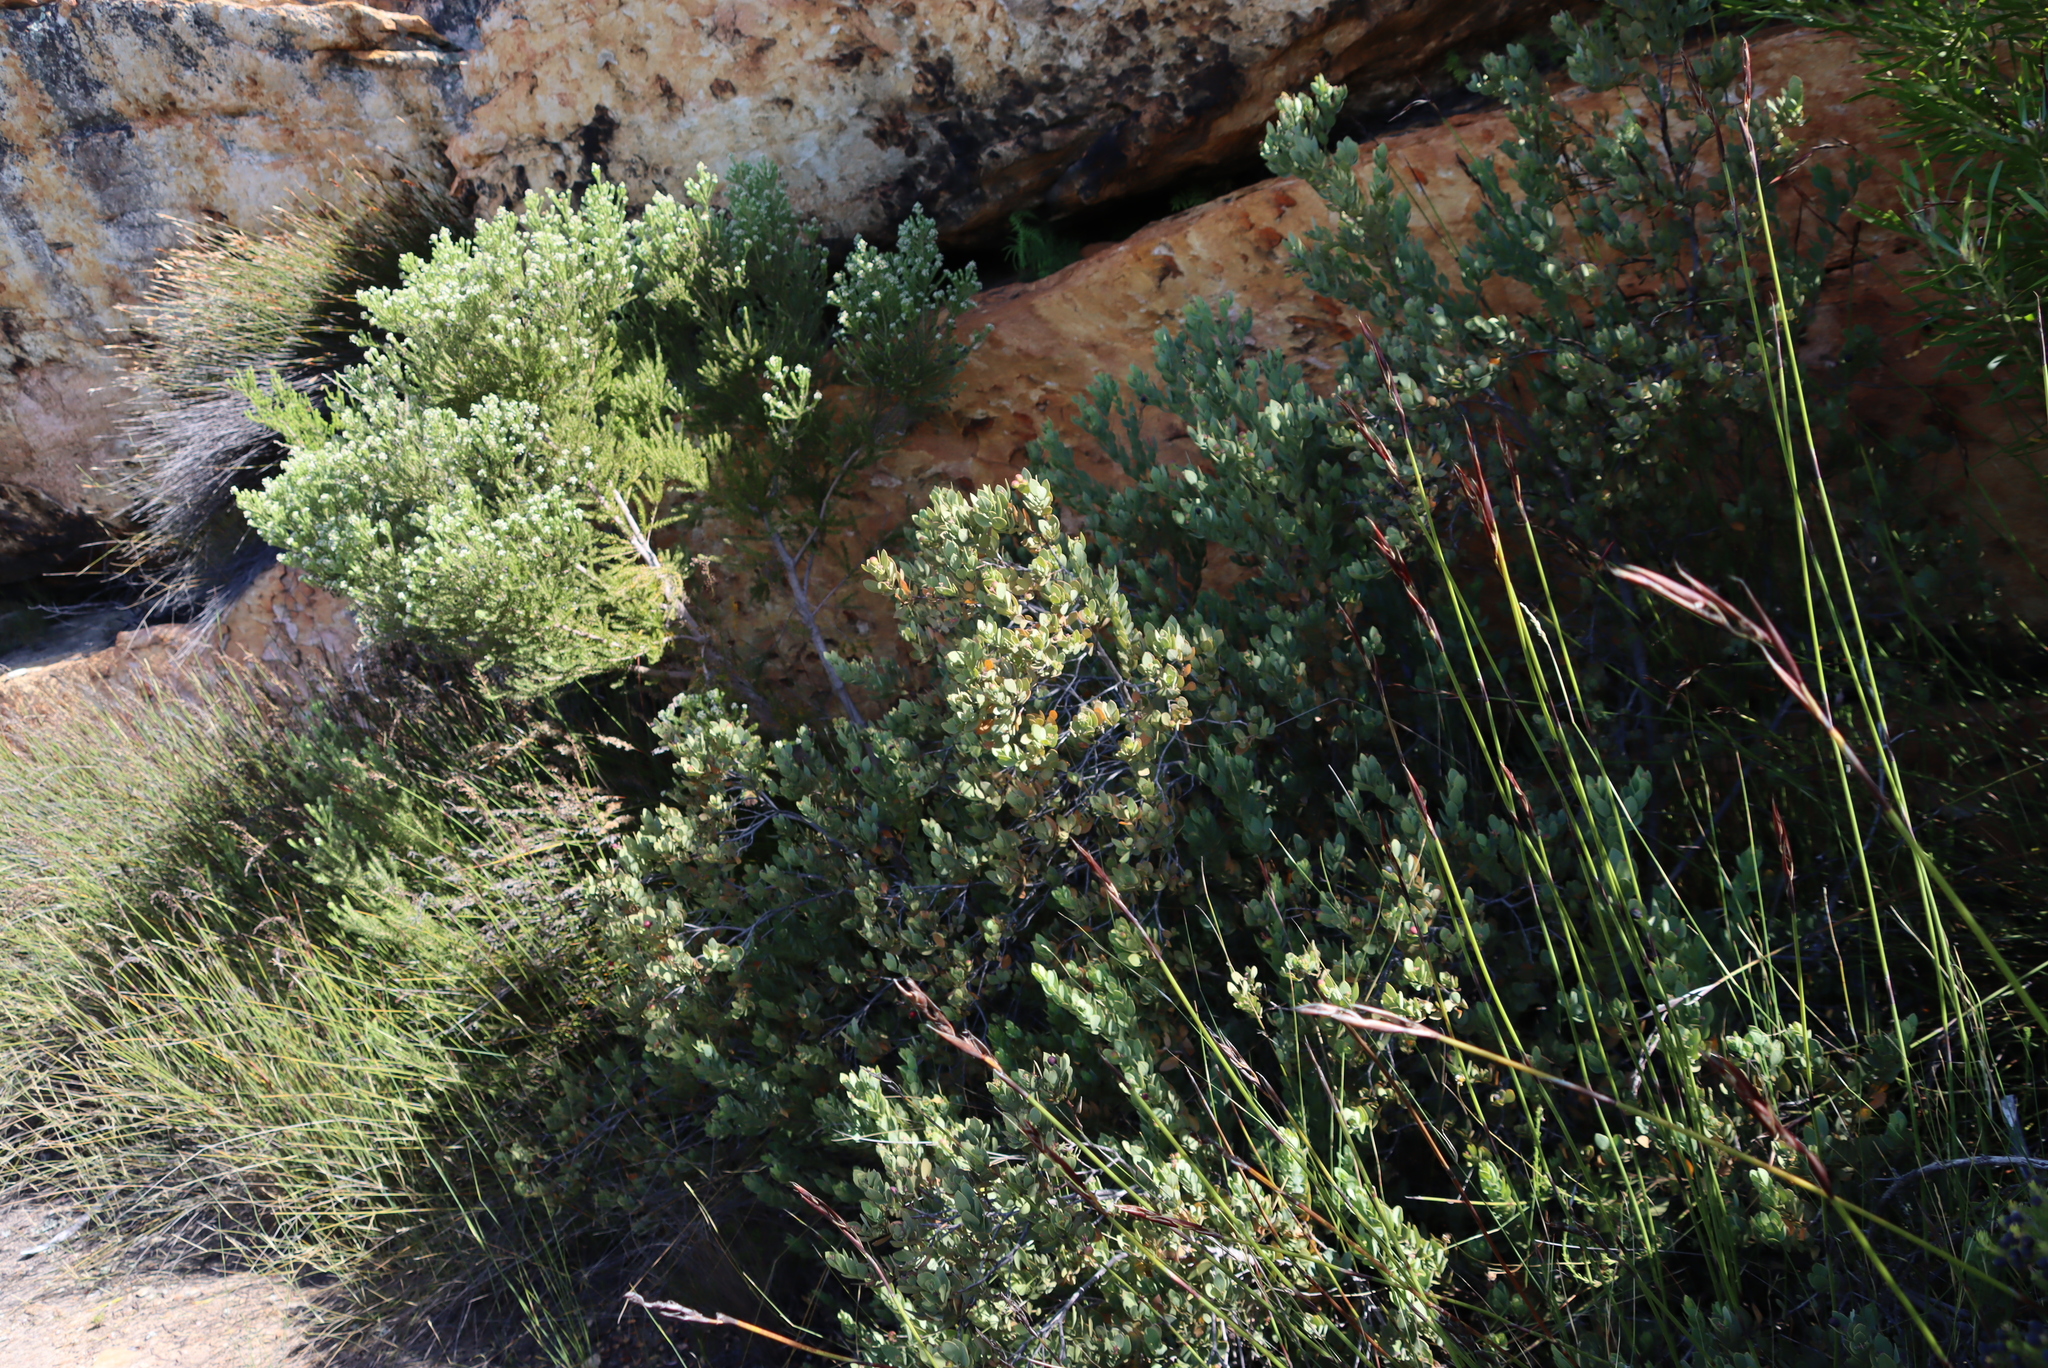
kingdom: Plantae
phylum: Tracheophyta
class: Magnoliopsida
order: Santalales
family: Santalaceae
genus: Osyris
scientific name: Osyris compressa
